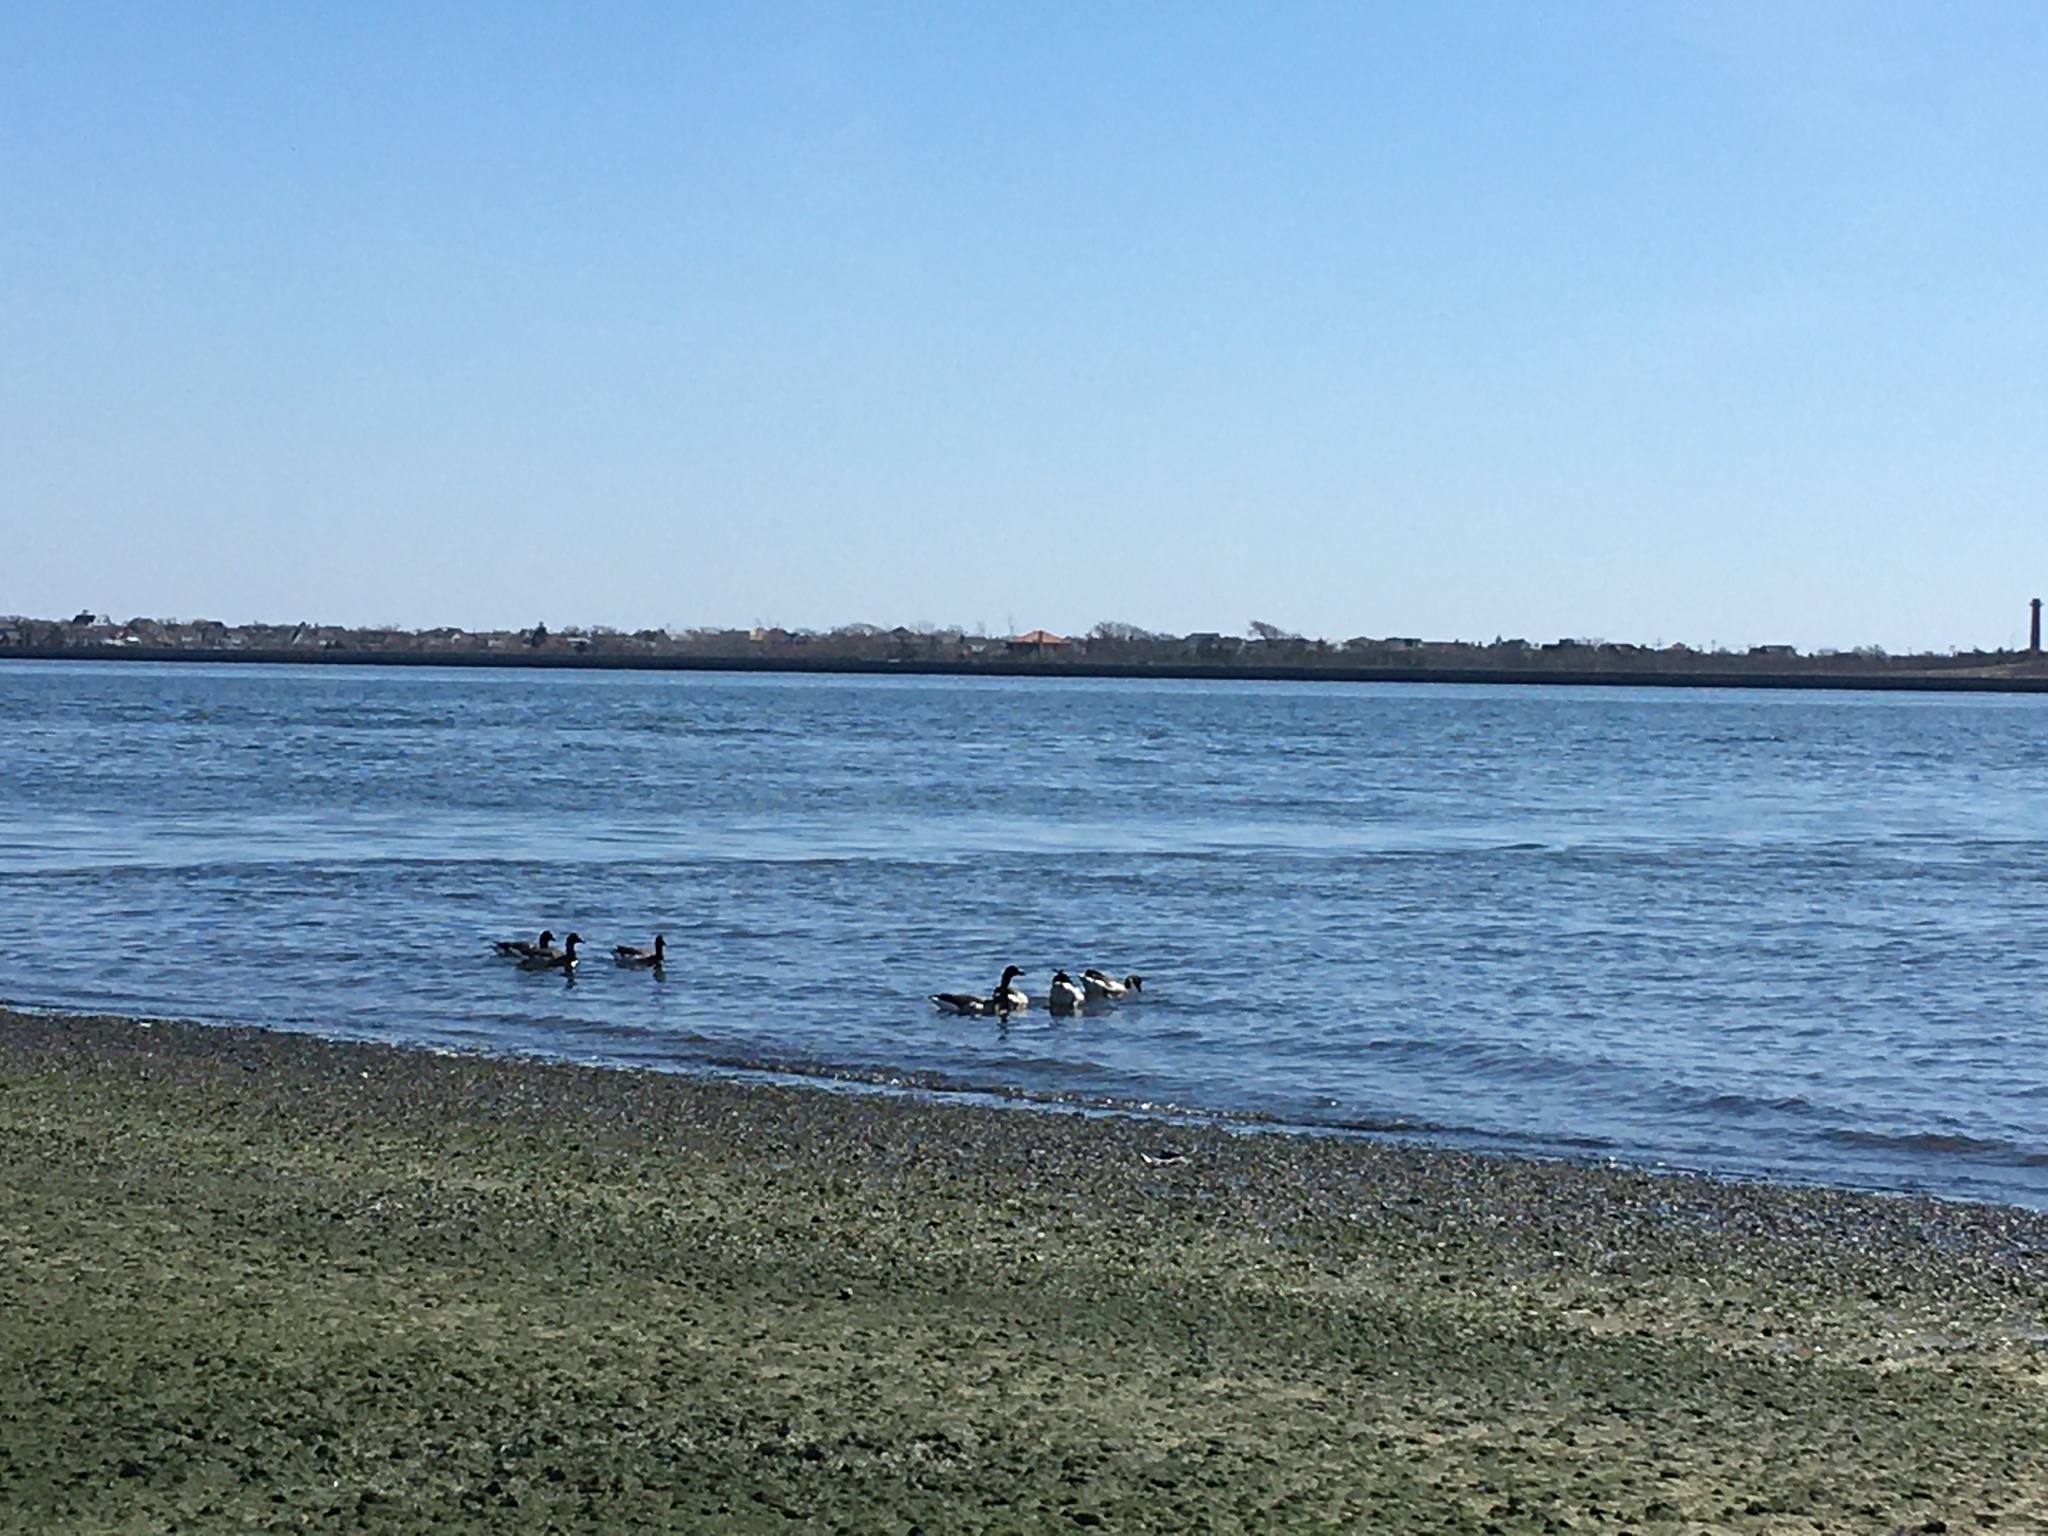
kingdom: Animalia
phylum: Chordata
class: Aves
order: Anseriformes
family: Anatidae
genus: Branta
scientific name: Branta bernicla
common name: Brant goose
